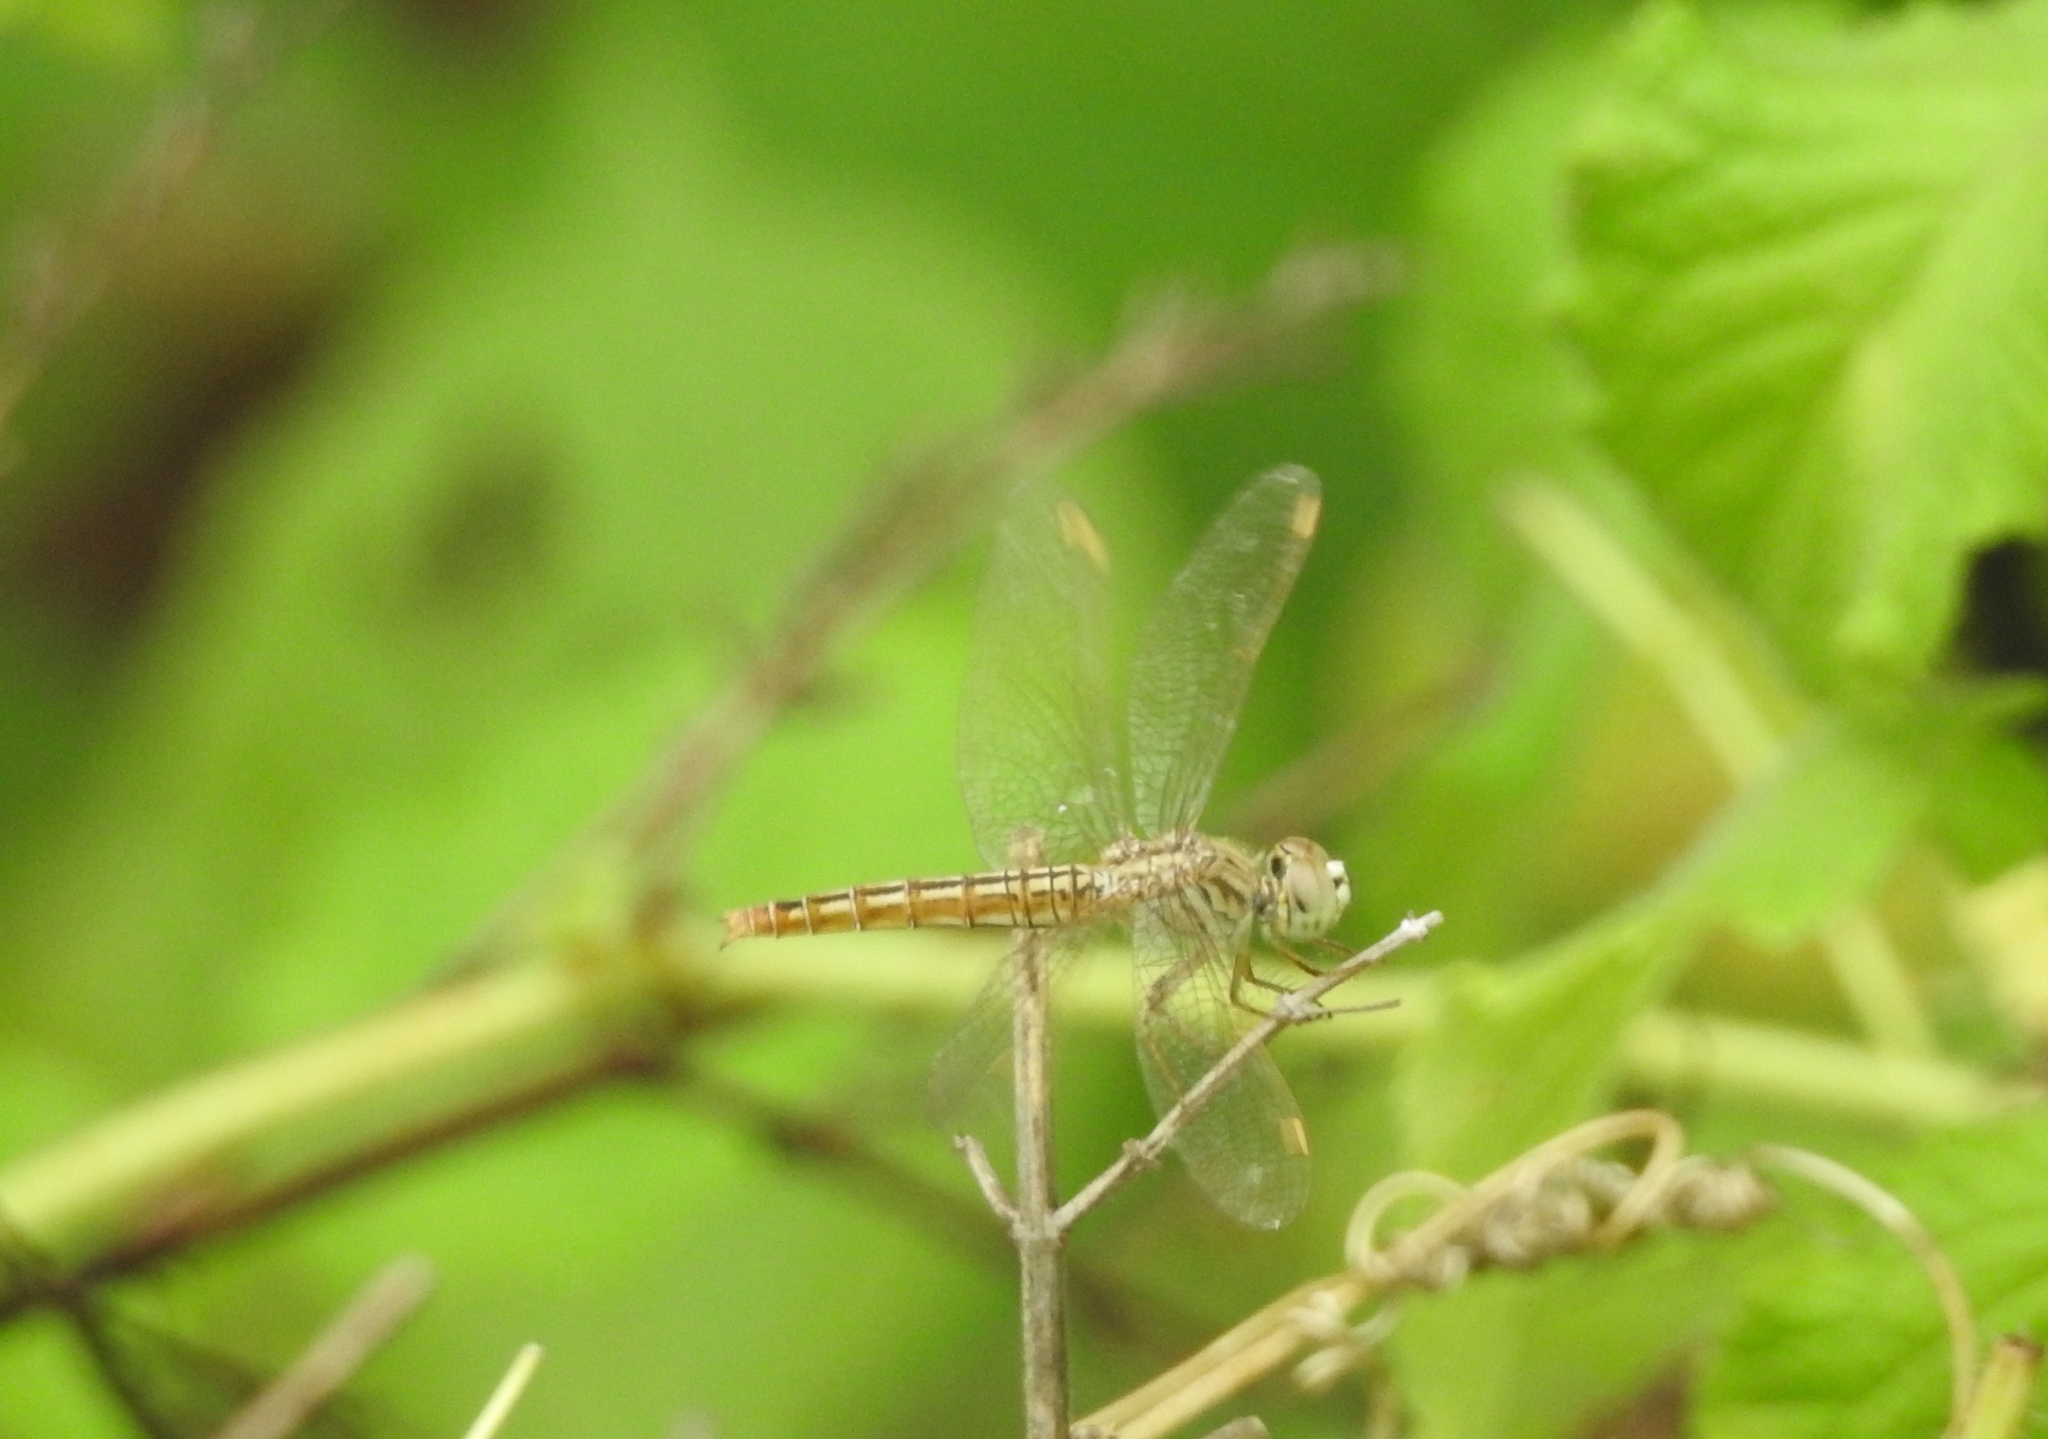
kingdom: Animalia
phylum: Arthropoda
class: Insecta
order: Odonata
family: Libellulidae
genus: Brachythemis
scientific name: Brachythemis contaminata
